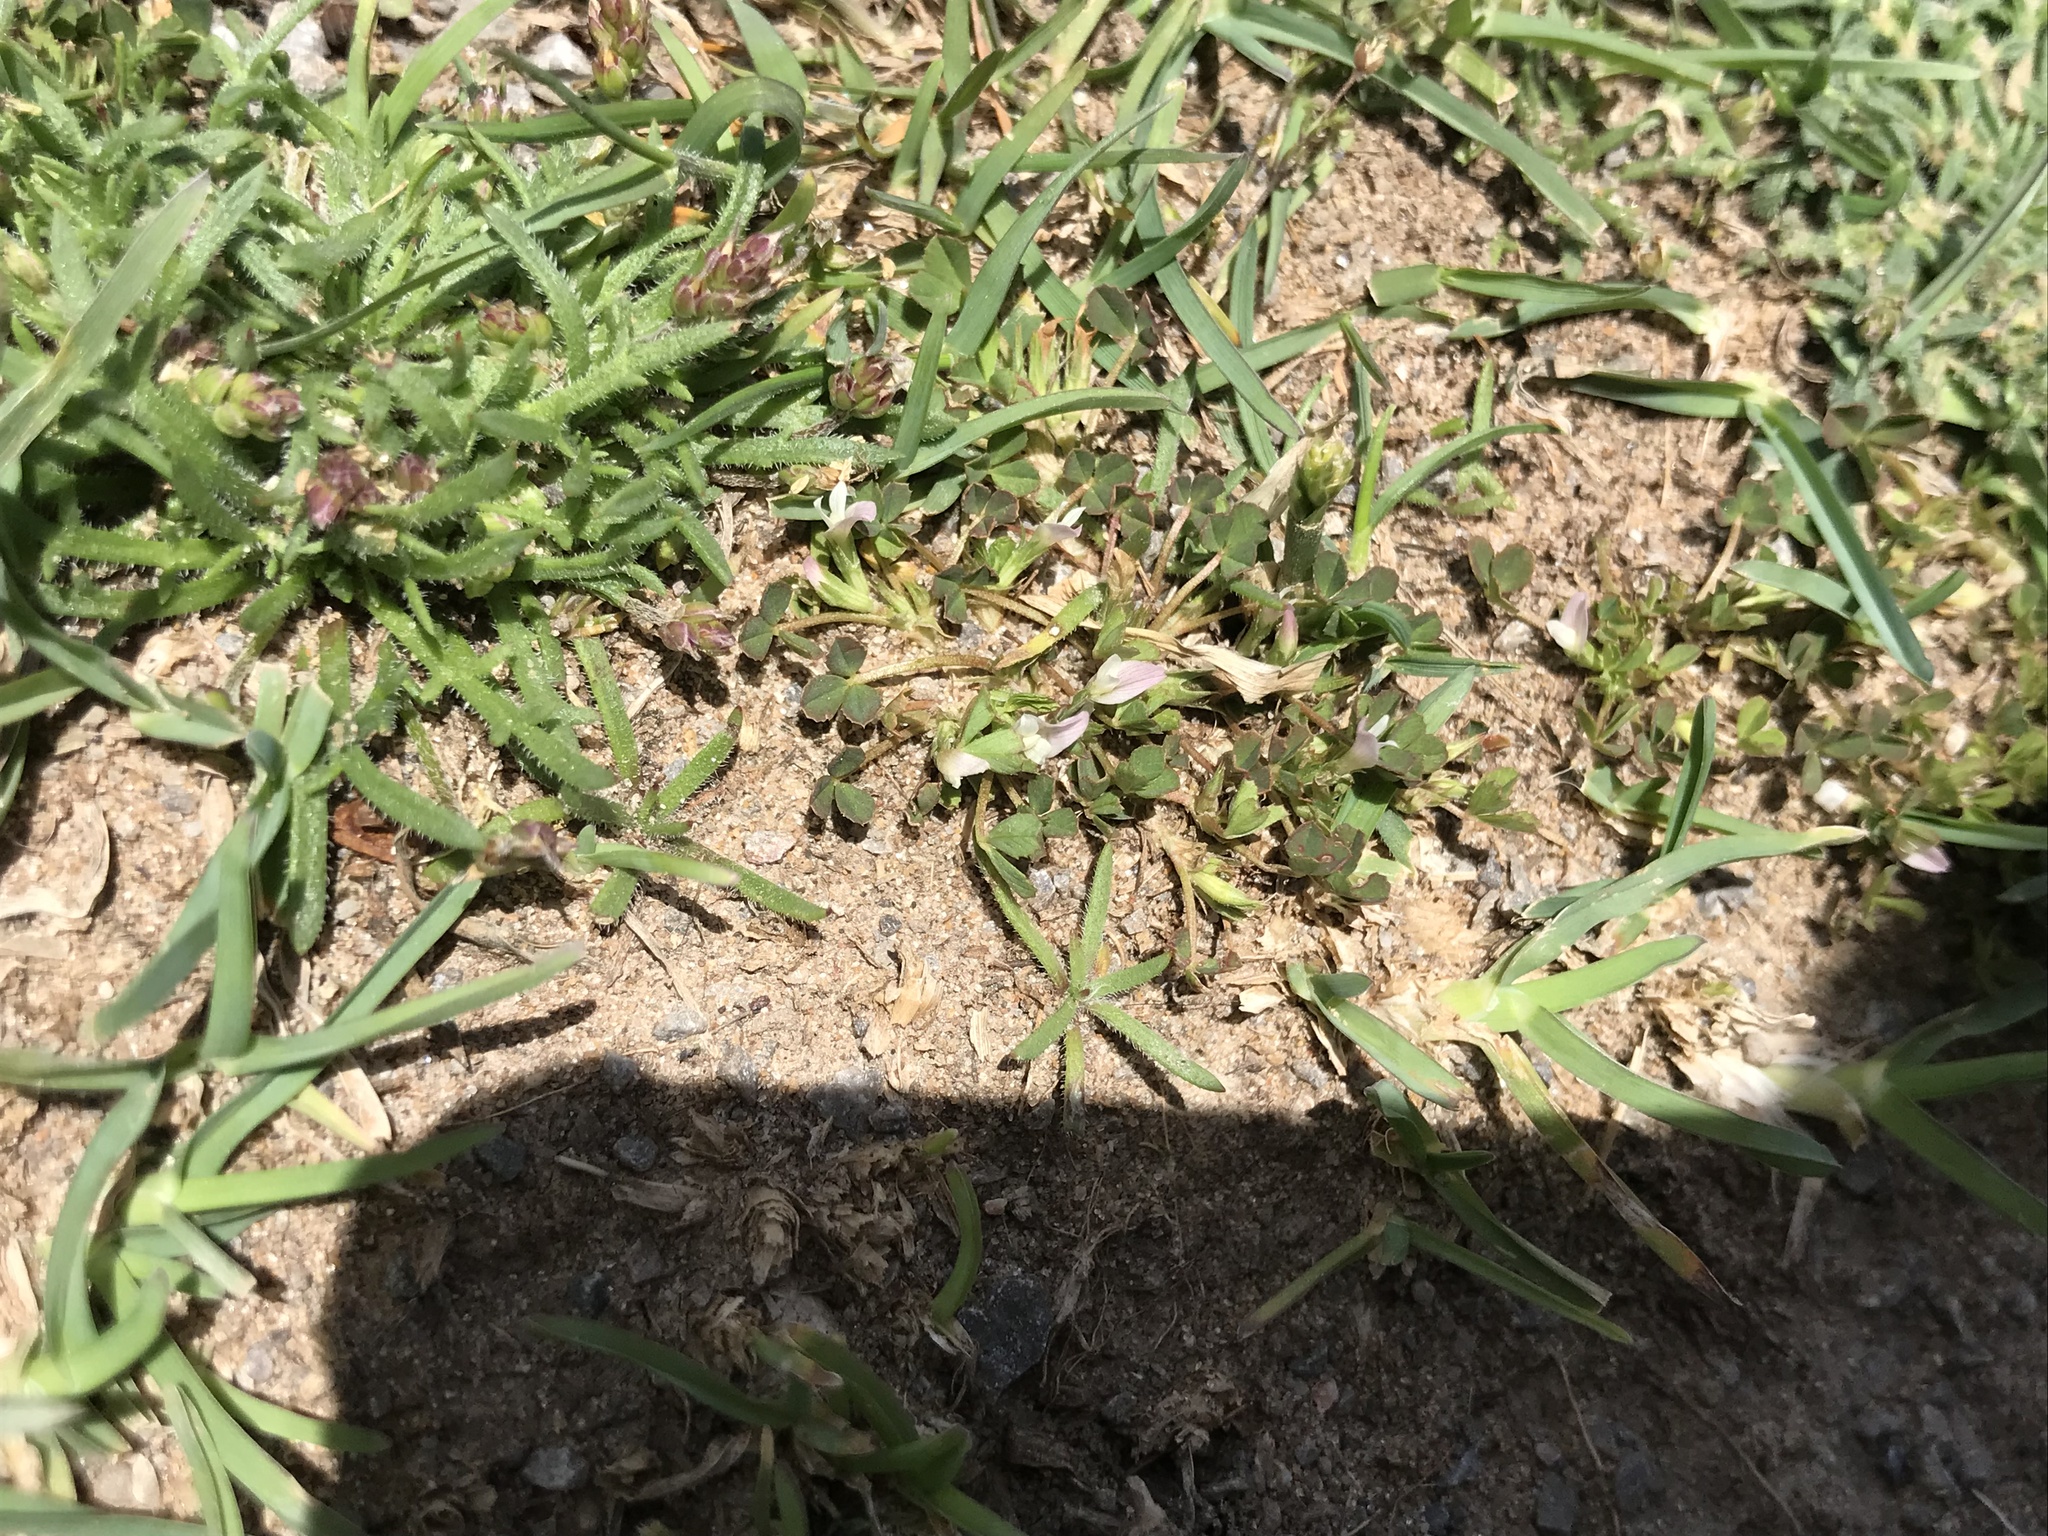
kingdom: Plantae
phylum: Tracheophyta
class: Magnoliopsida
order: Fabales
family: Fabaceae
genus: Trifolium
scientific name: Trifolium ornithopodioides
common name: Bird's-foot clover
